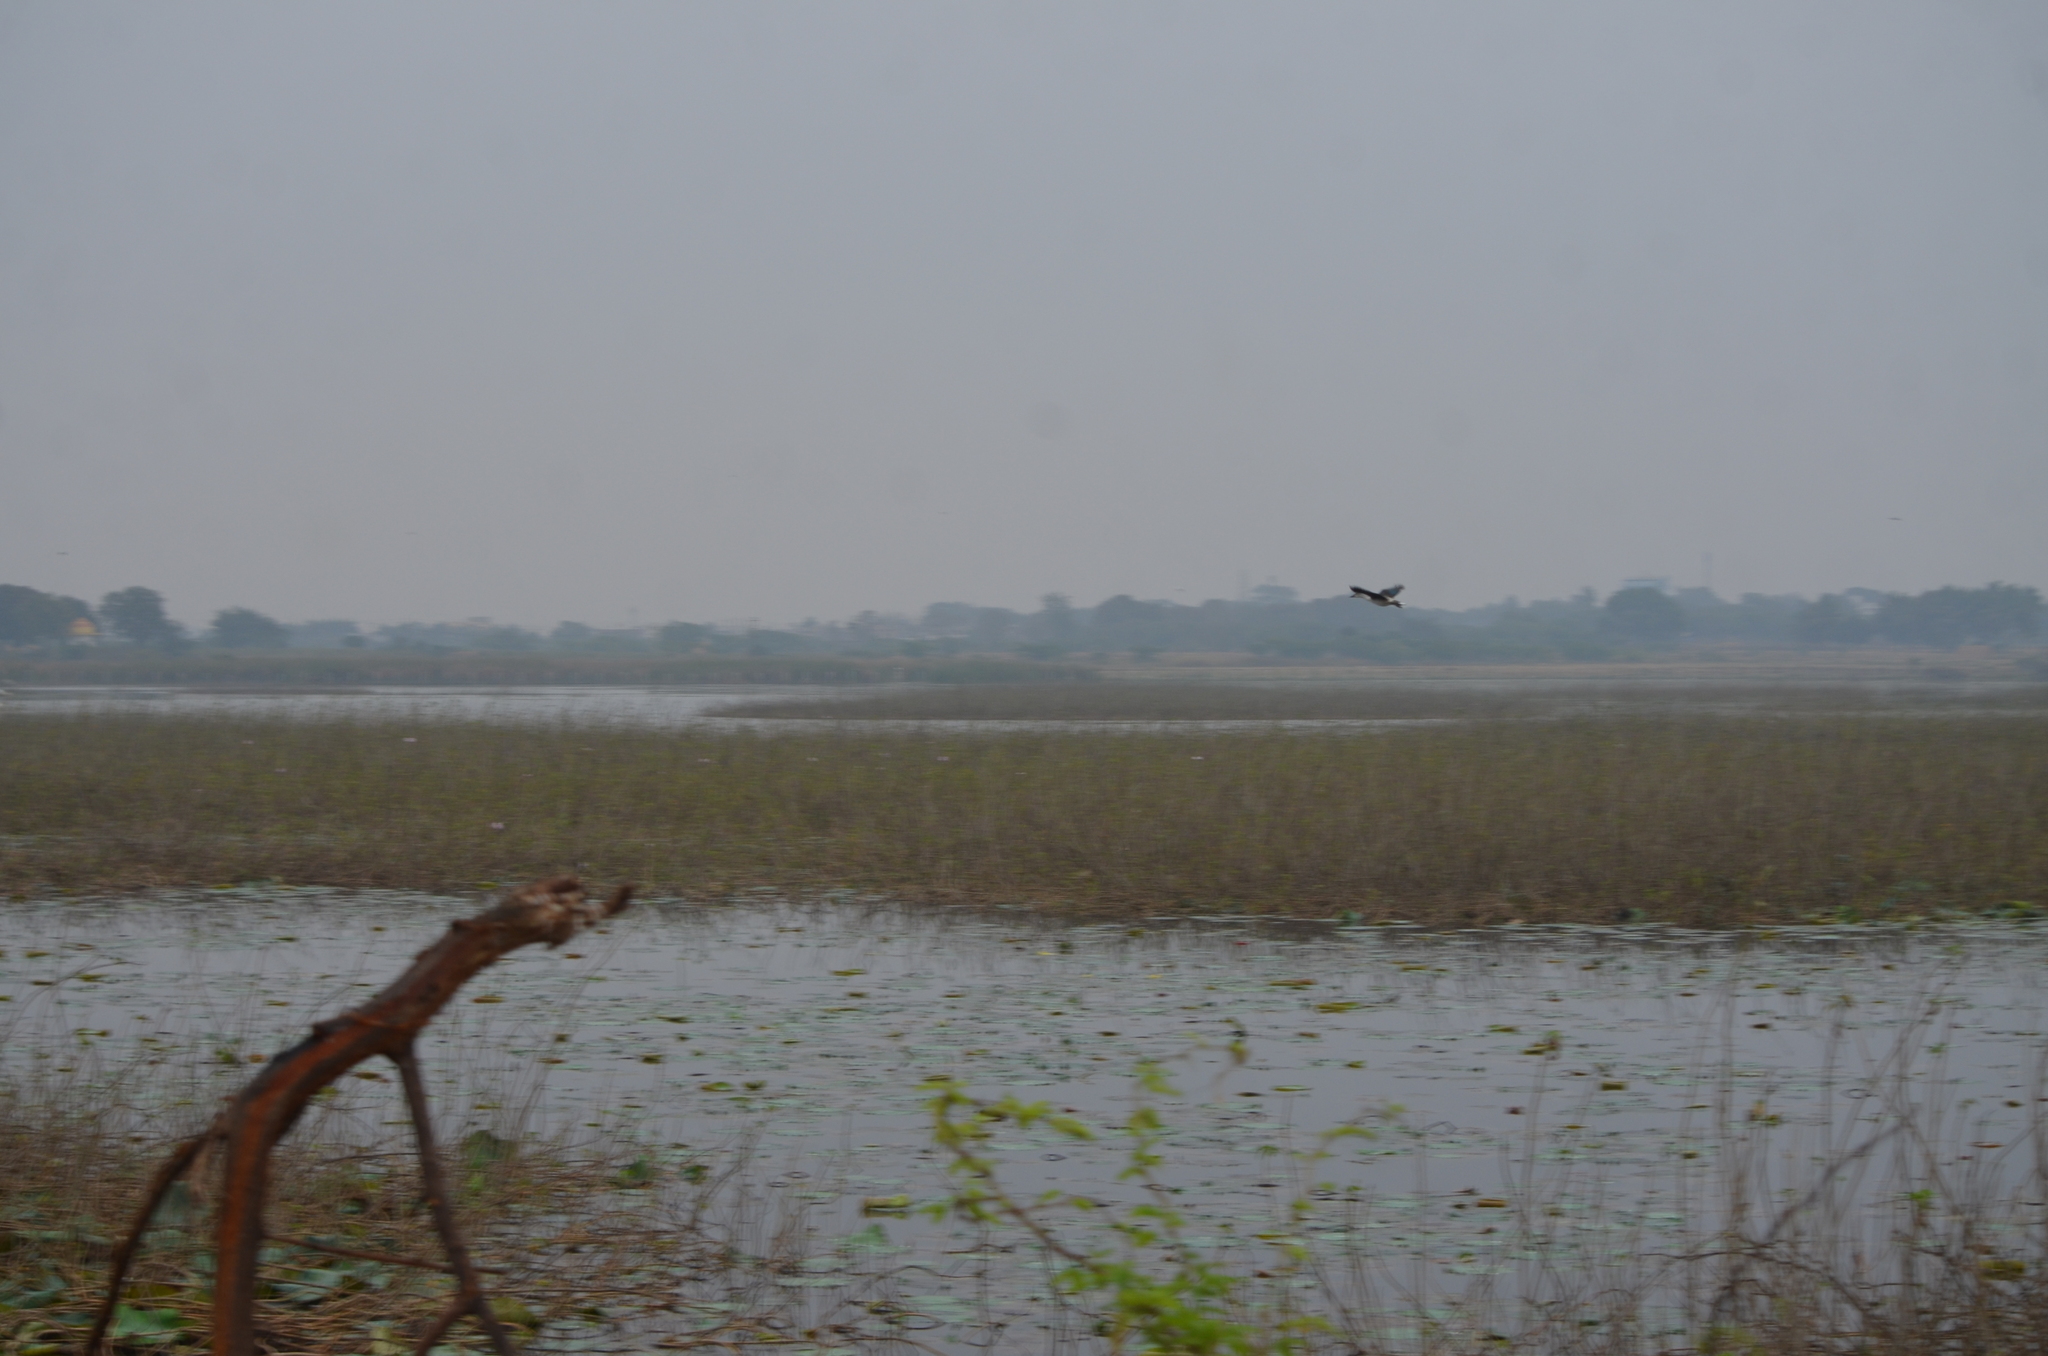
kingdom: Animalia
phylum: Chordata
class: Aves
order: Anseriformes
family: Anatidae
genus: Sarkidiornis
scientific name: Sarkidiornis melanotos
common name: Comb duck
